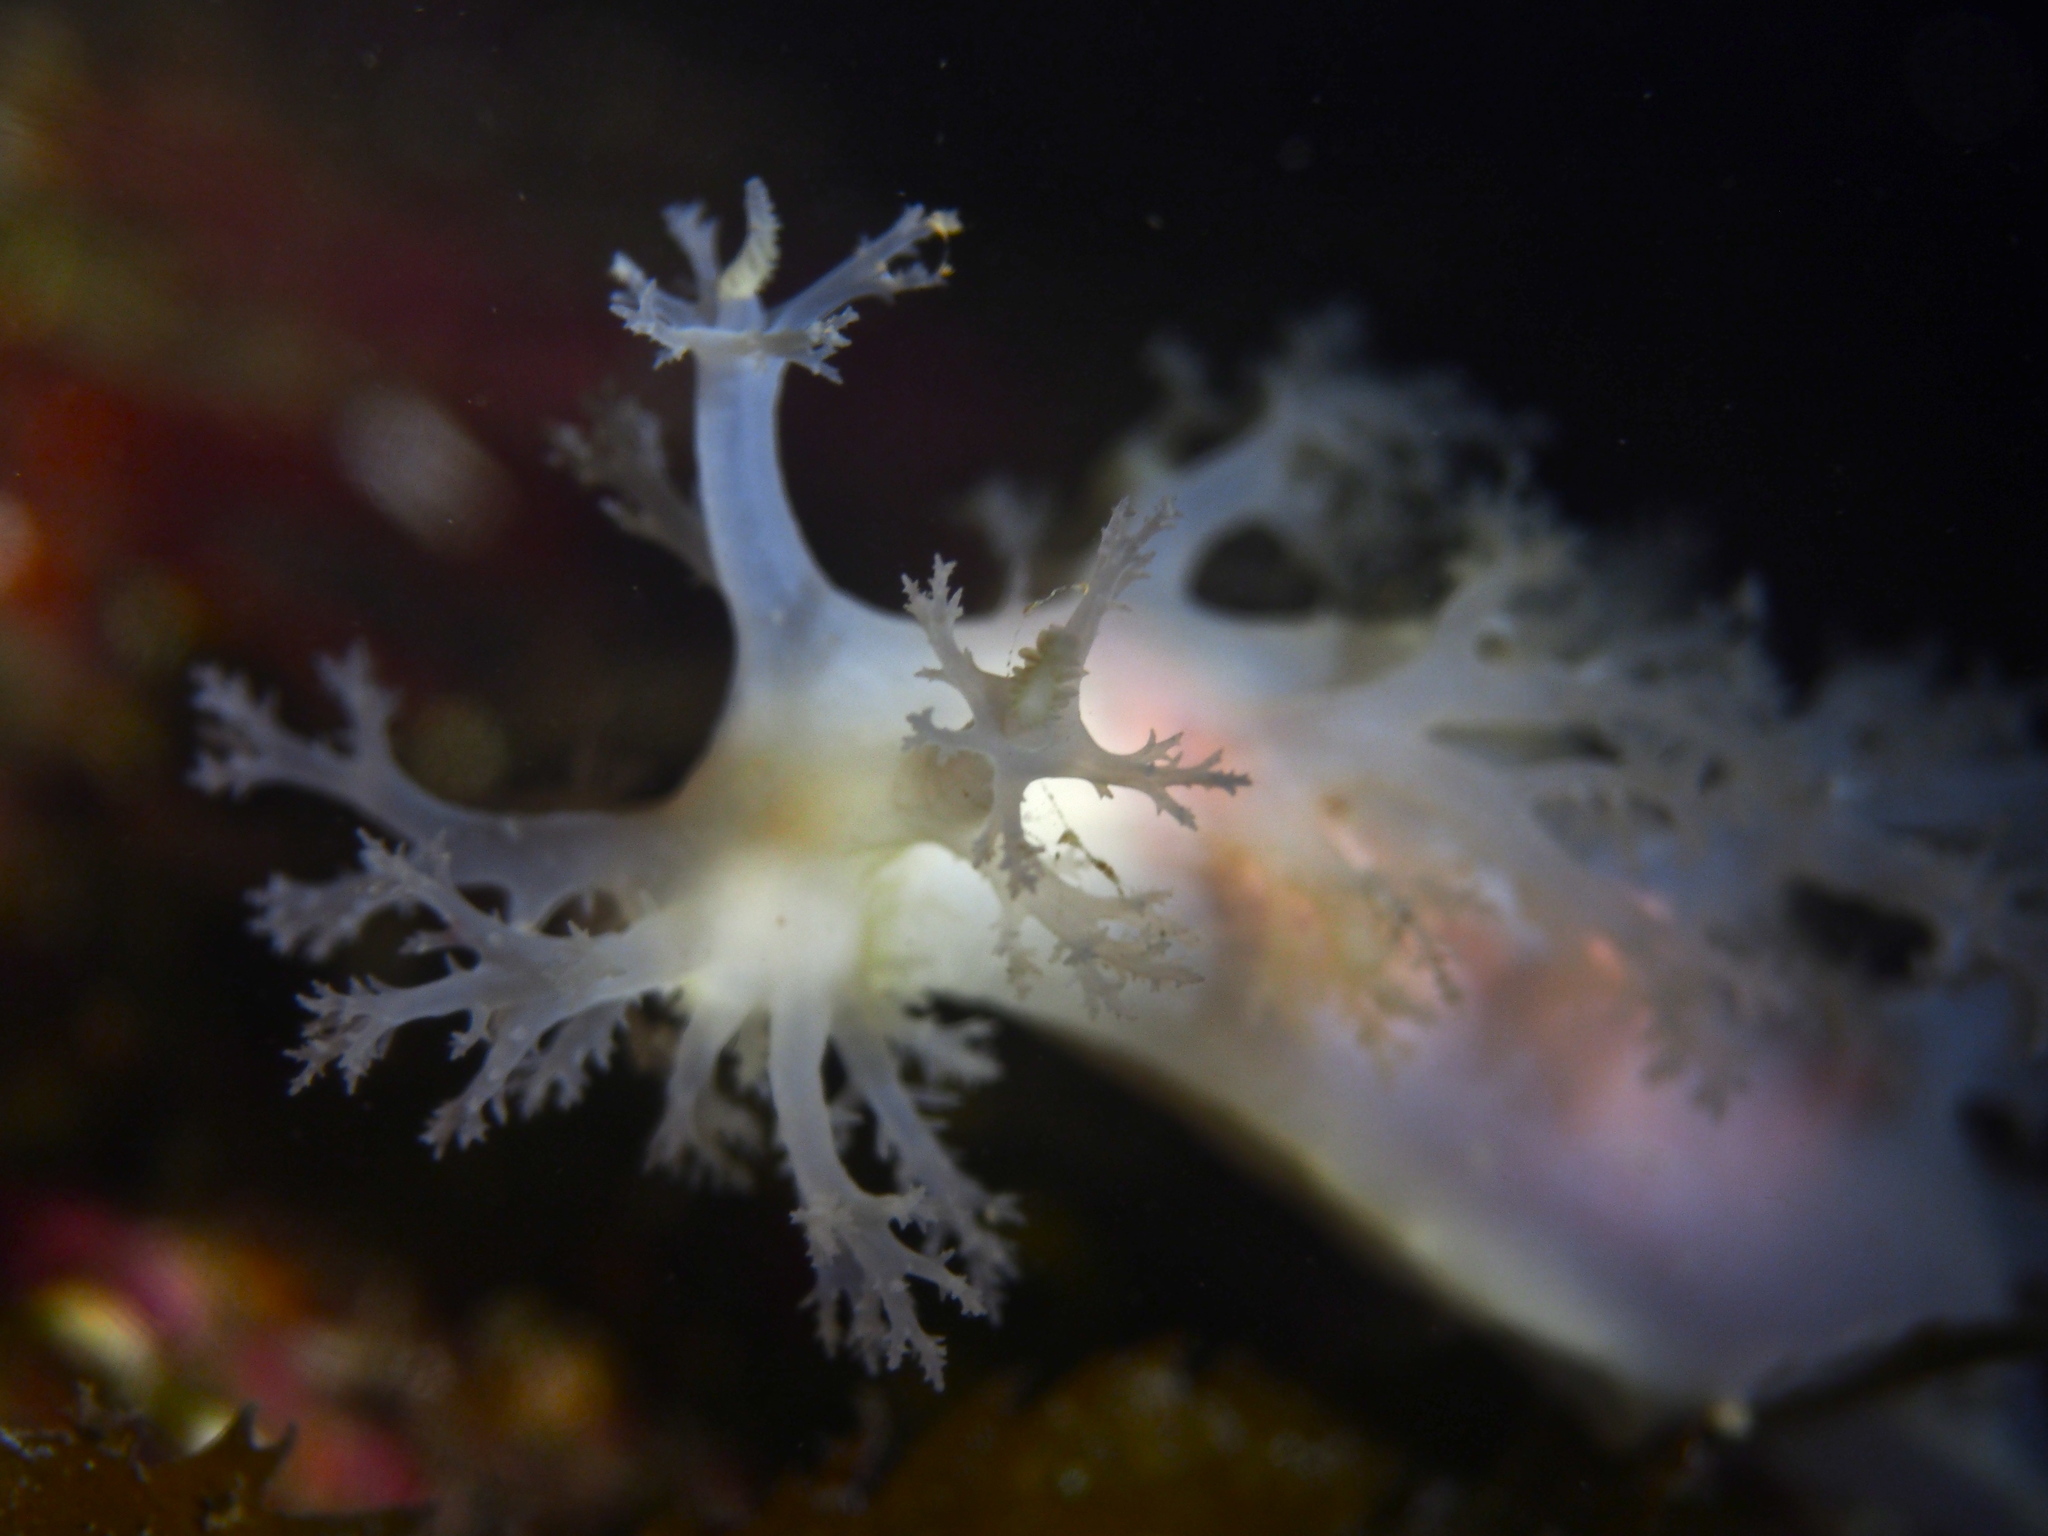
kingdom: Animalia
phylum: Mollusca
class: Gastropoda
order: Nudibranchia
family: Dendronotidae
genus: Dendronotus
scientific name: Dendronotus lacteus
